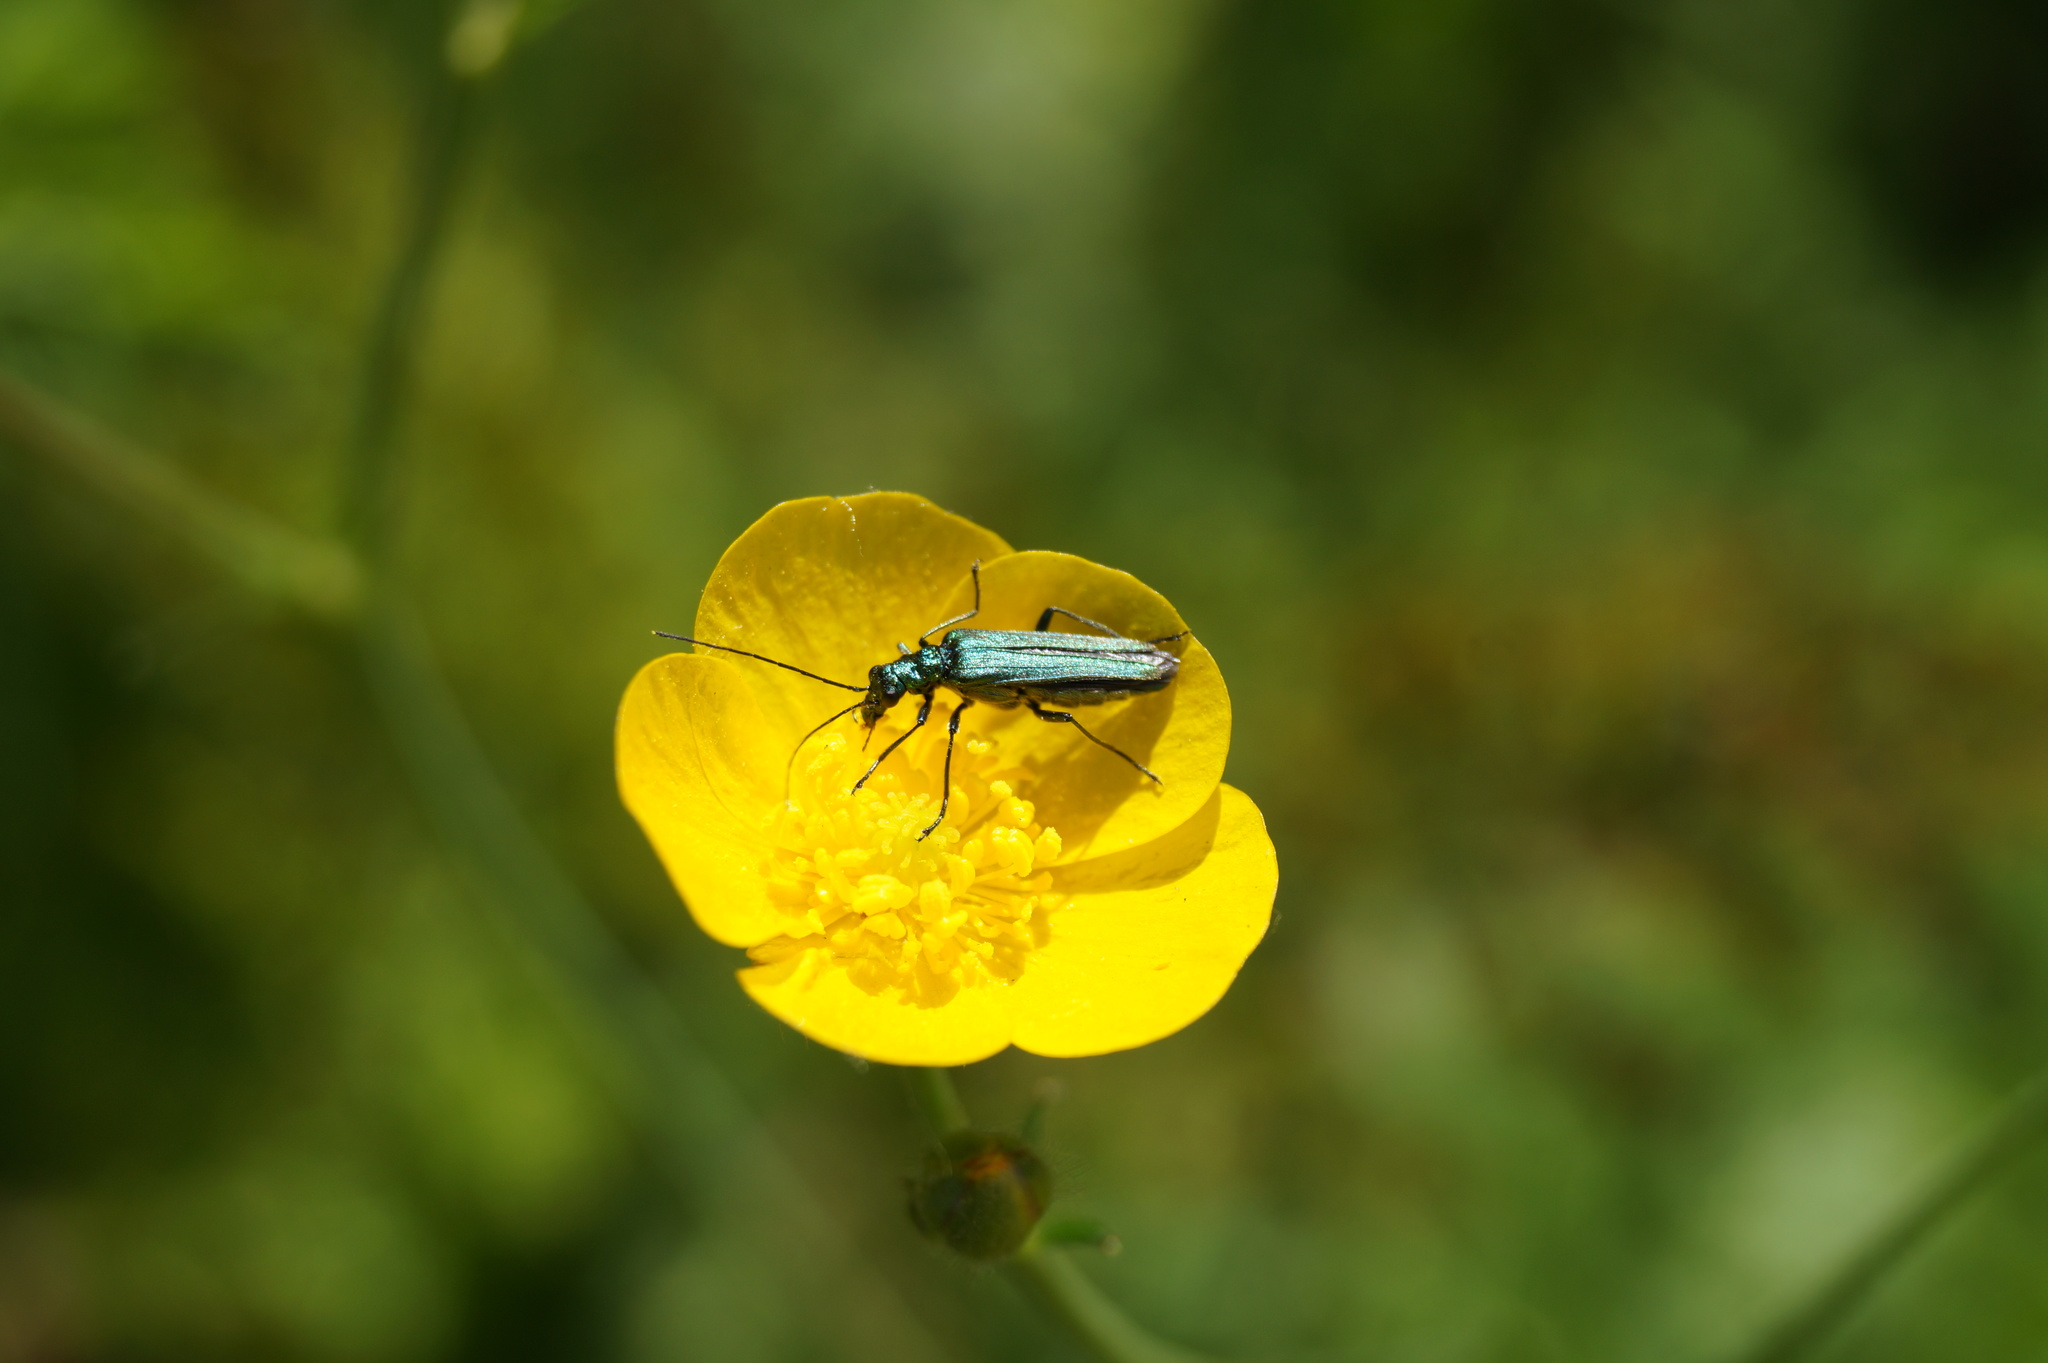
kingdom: Animalia
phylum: Arthropoda
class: Insecta
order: Coleoptera
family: Oedemeridae
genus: Oedemera
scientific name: Oedemera nobilis
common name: Swollen-thighed beetle
